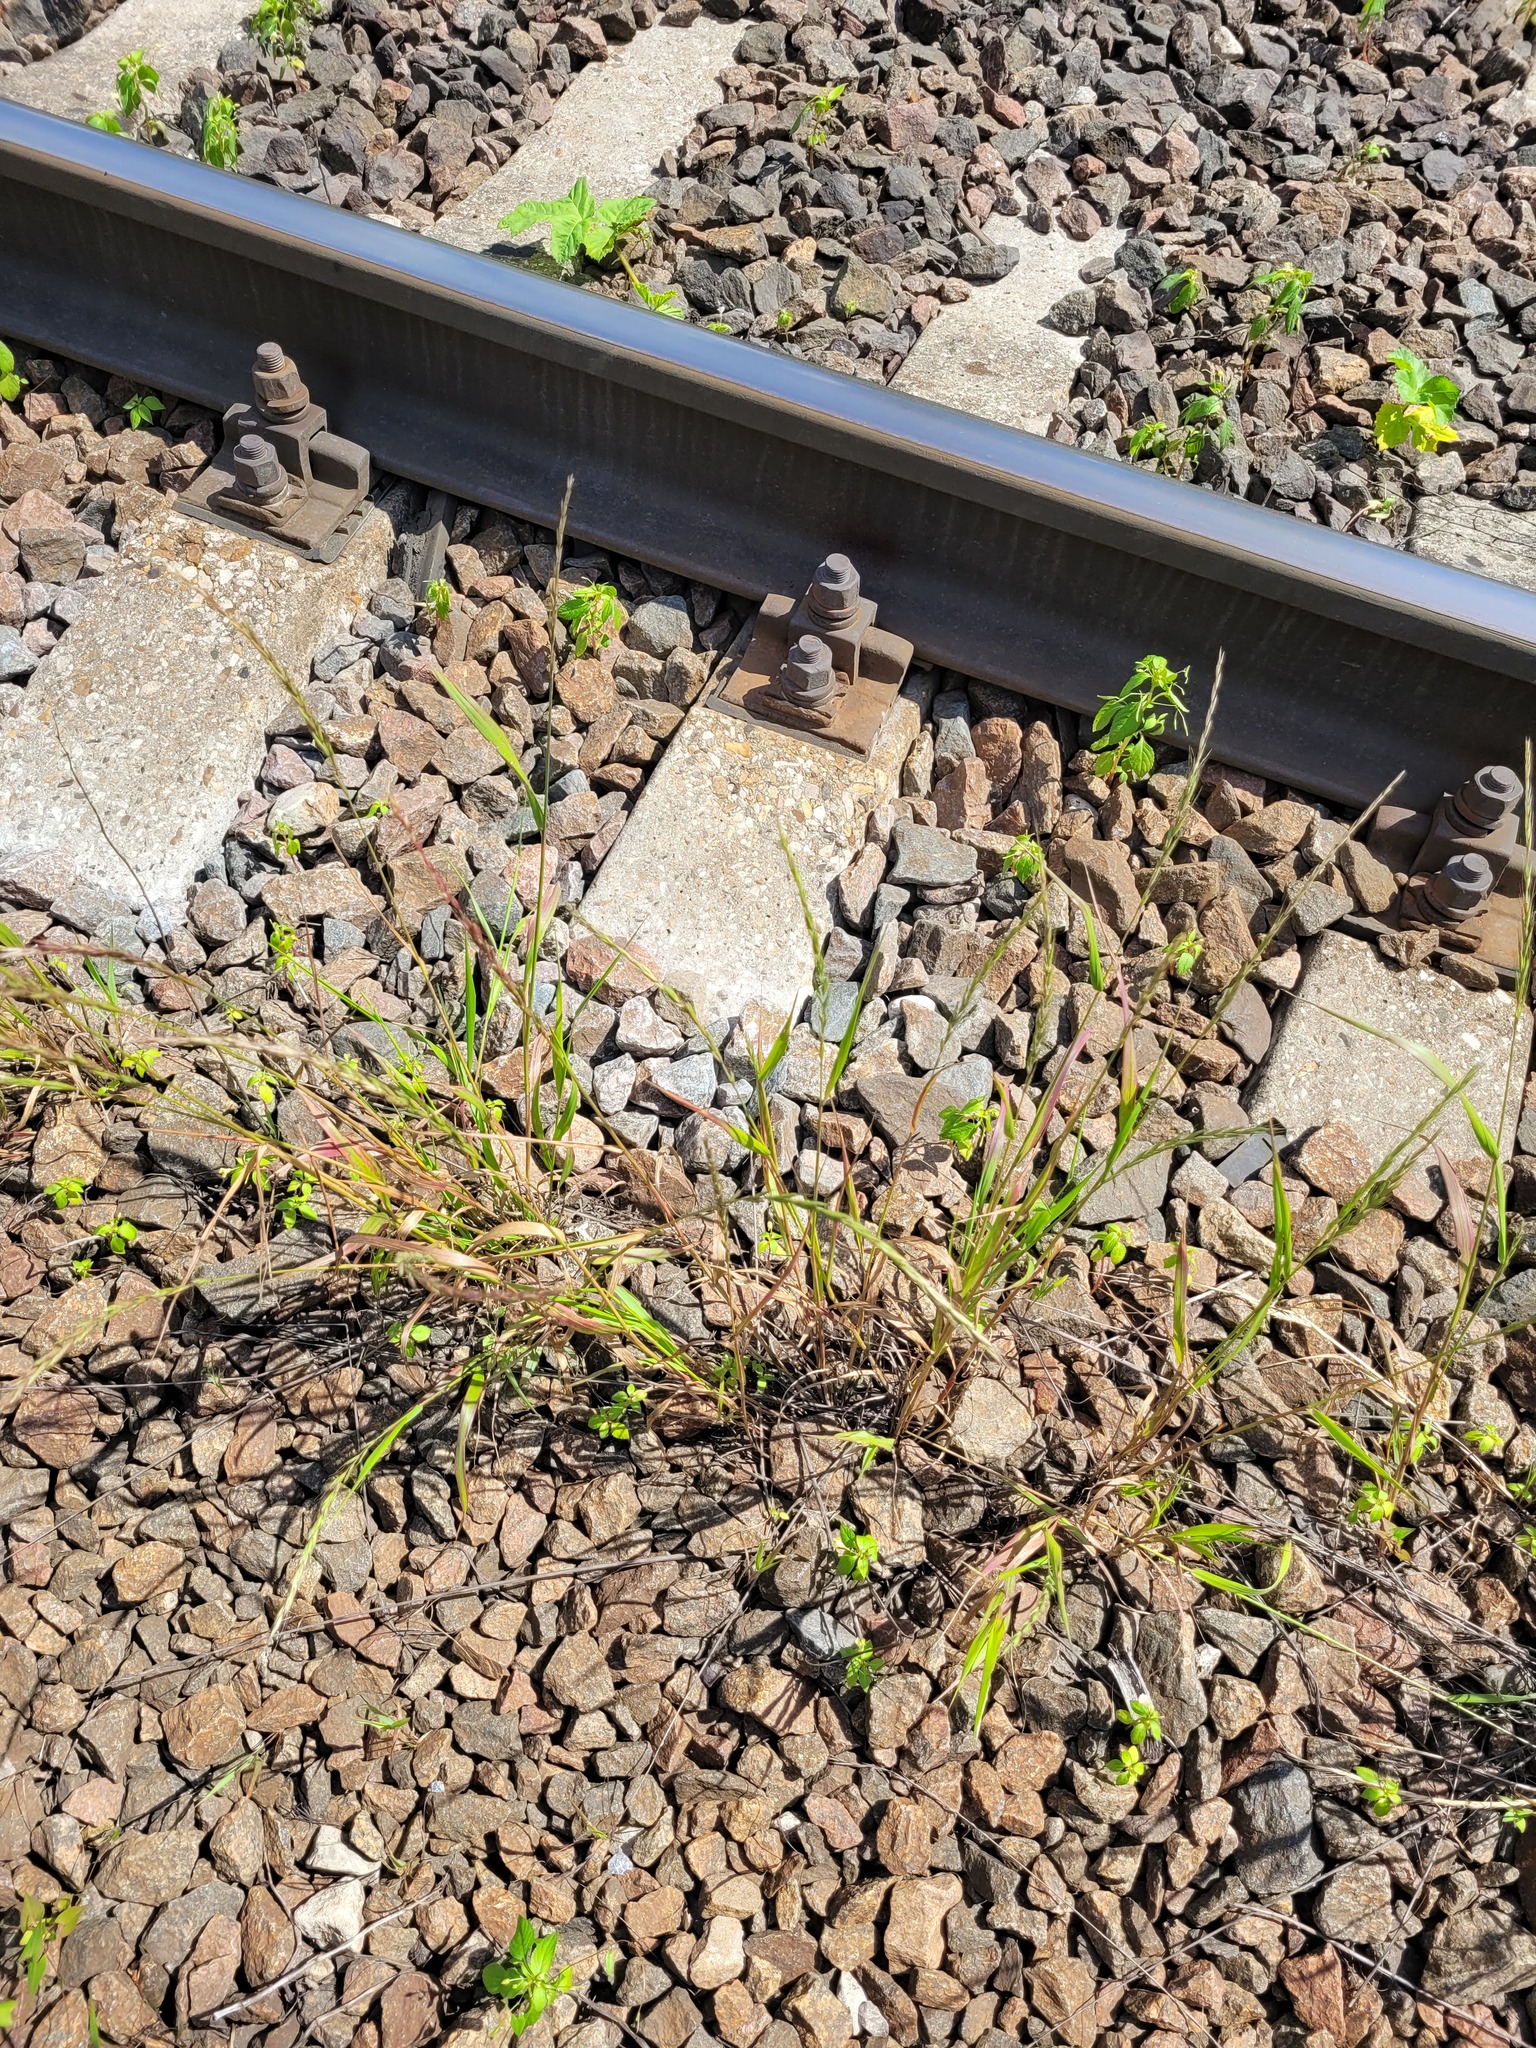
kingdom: Plantae
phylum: Tracheophyta
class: Liliopsida
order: Poales
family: Poaceae
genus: Elymus
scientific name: Elymus caninus
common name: Bearded couch
